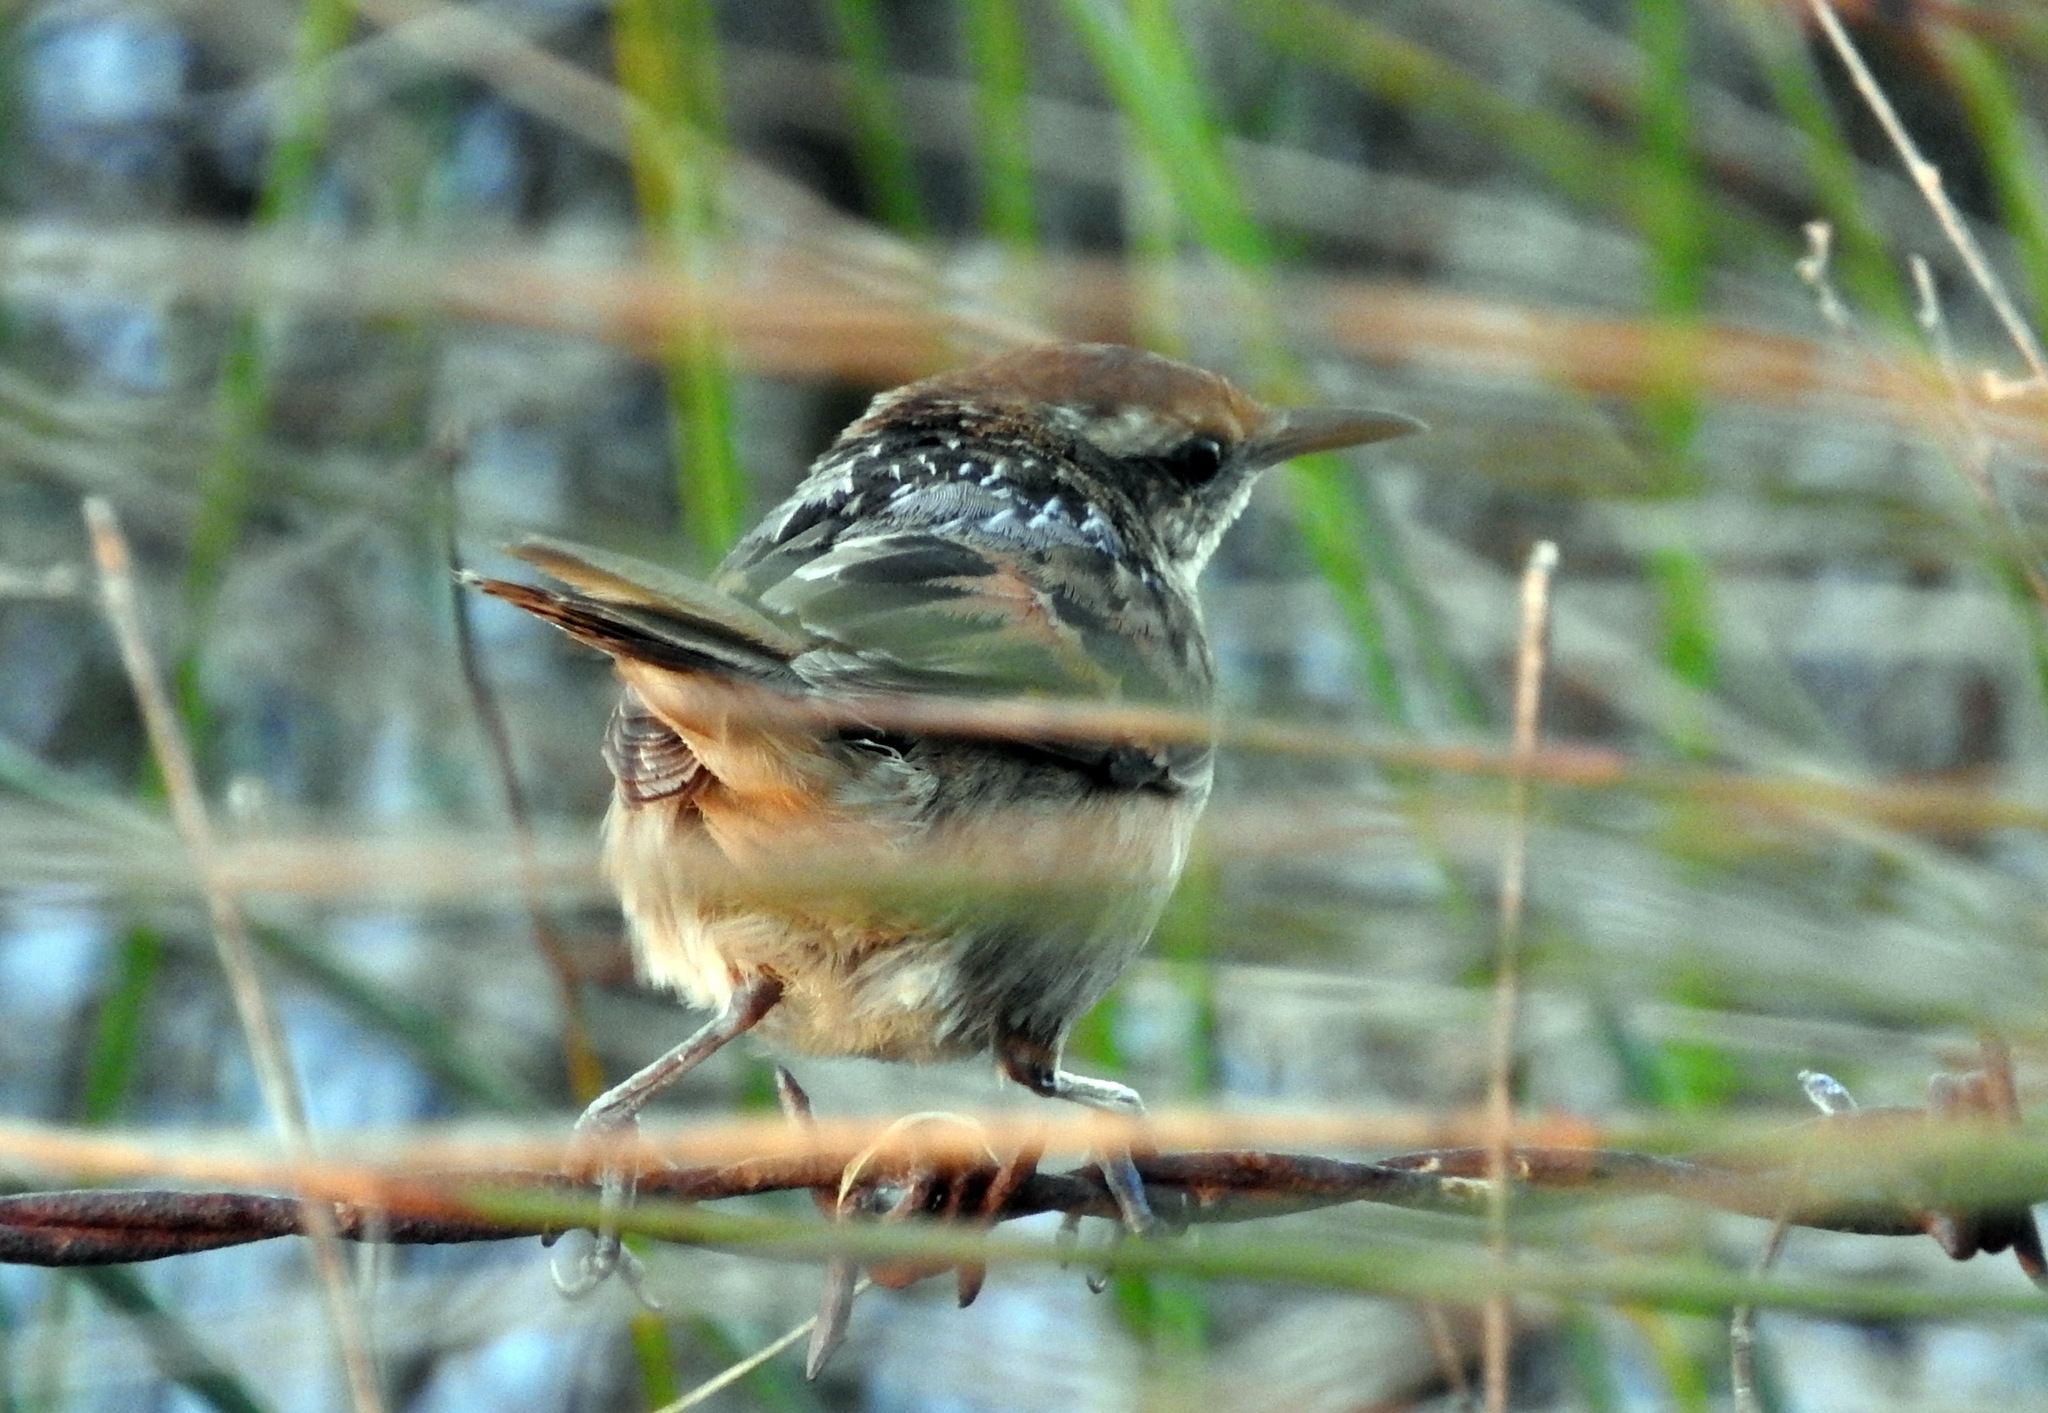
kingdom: Animalia
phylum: Chordata
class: Aves
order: Passeriformes
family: Furnariidae
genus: Phleocryptes
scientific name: Phleocryptes melanops
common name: Wren-like rushbird
